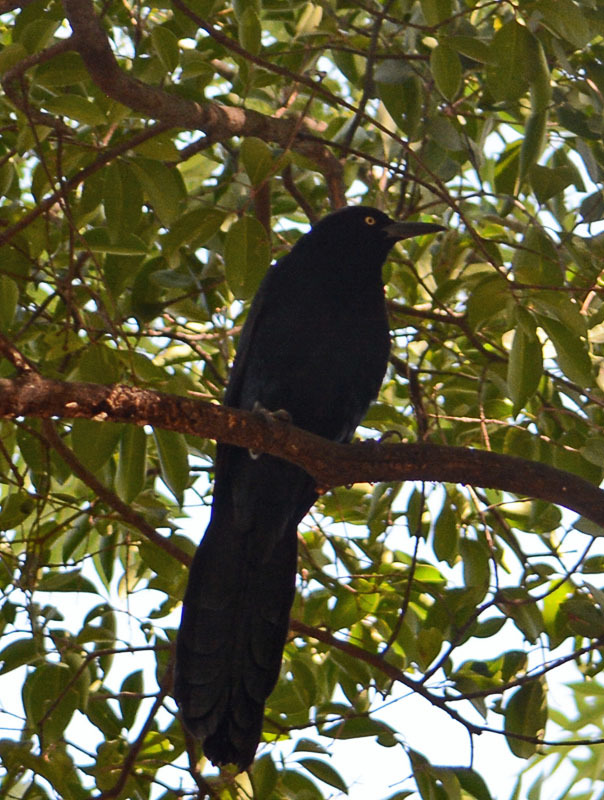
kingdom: Animalia
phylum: Chordata
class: Aves
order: Passeriformes
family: Icteridae
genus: Quiscalus
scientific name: Quiscalus mexicanus
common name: Great-tailed grackle
